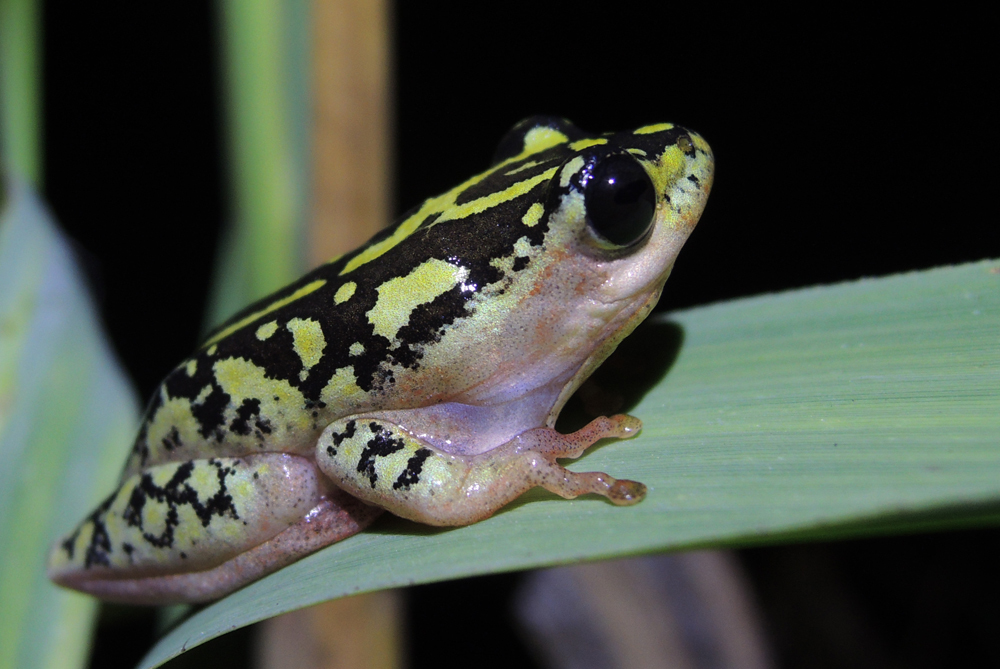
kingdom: Animalia
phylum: Chordata
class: Amphibia
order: Anura
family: Hyperoliidae
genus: Hyperolius
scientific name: Hyperolius marmoratus
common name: Painted reed frog
